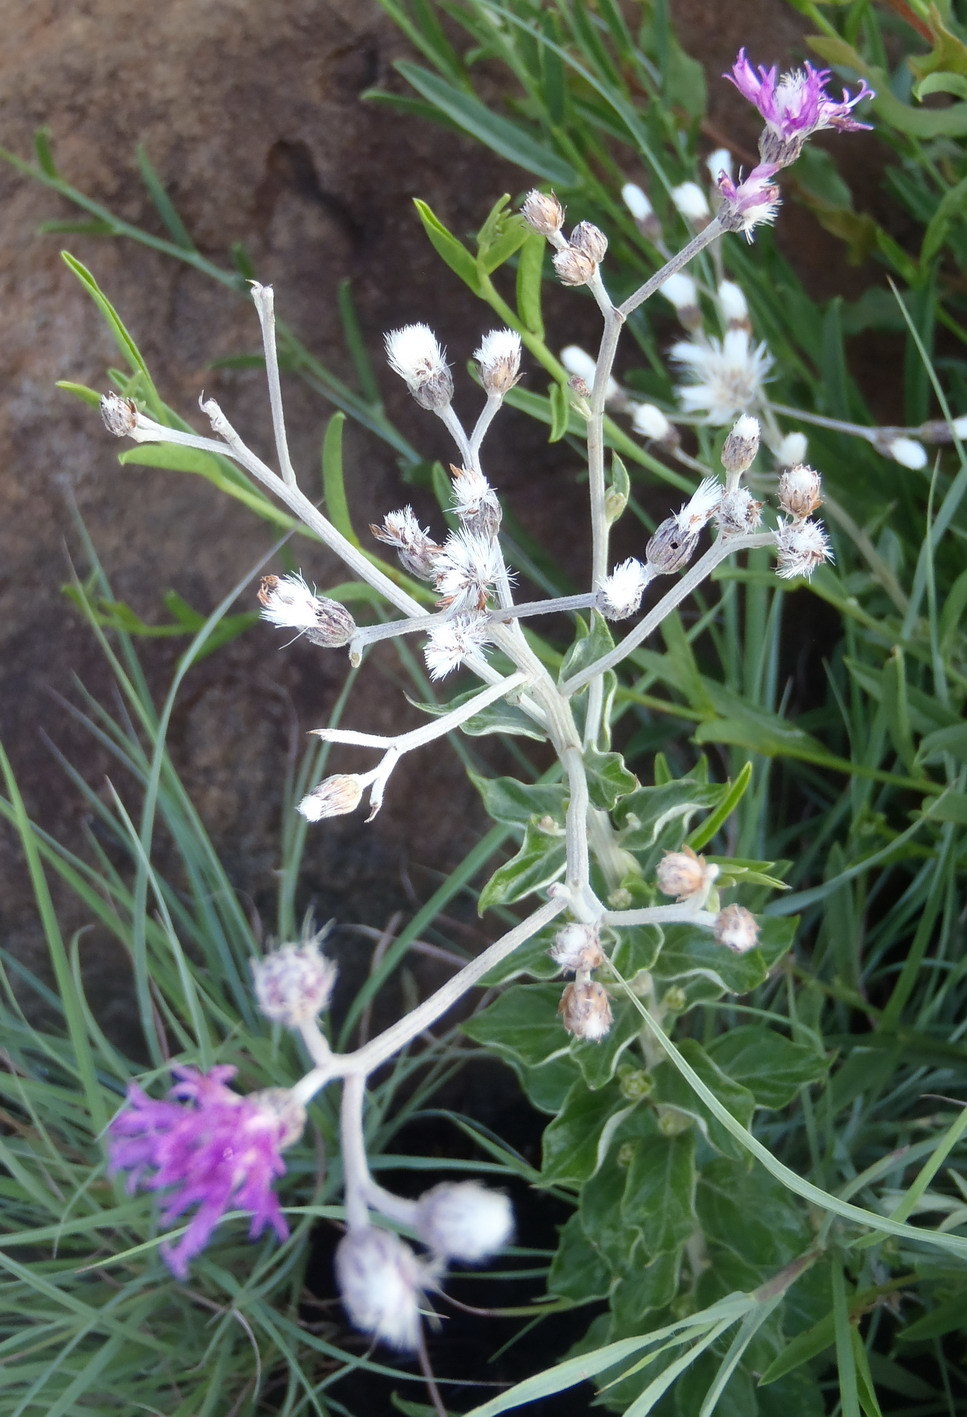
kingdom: Plantae
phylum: Tracheophyta
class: Magnoliopsida
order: Asterales
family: Asteraceae
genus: Hilliardiella
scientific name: Hilliardiella oligocephala
